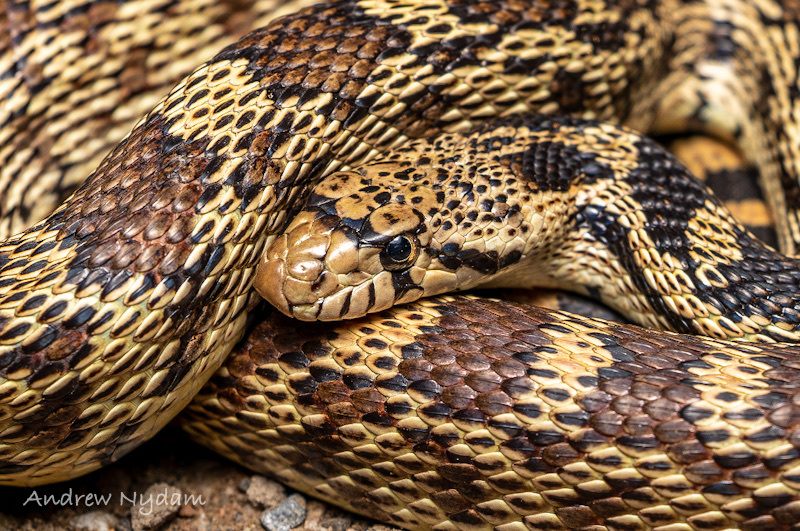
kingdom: Animalia
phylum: Chordata
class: Squamata
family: Colubridae
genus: Pituophis
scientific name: Pituophis catenifer
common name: Gopher snake
